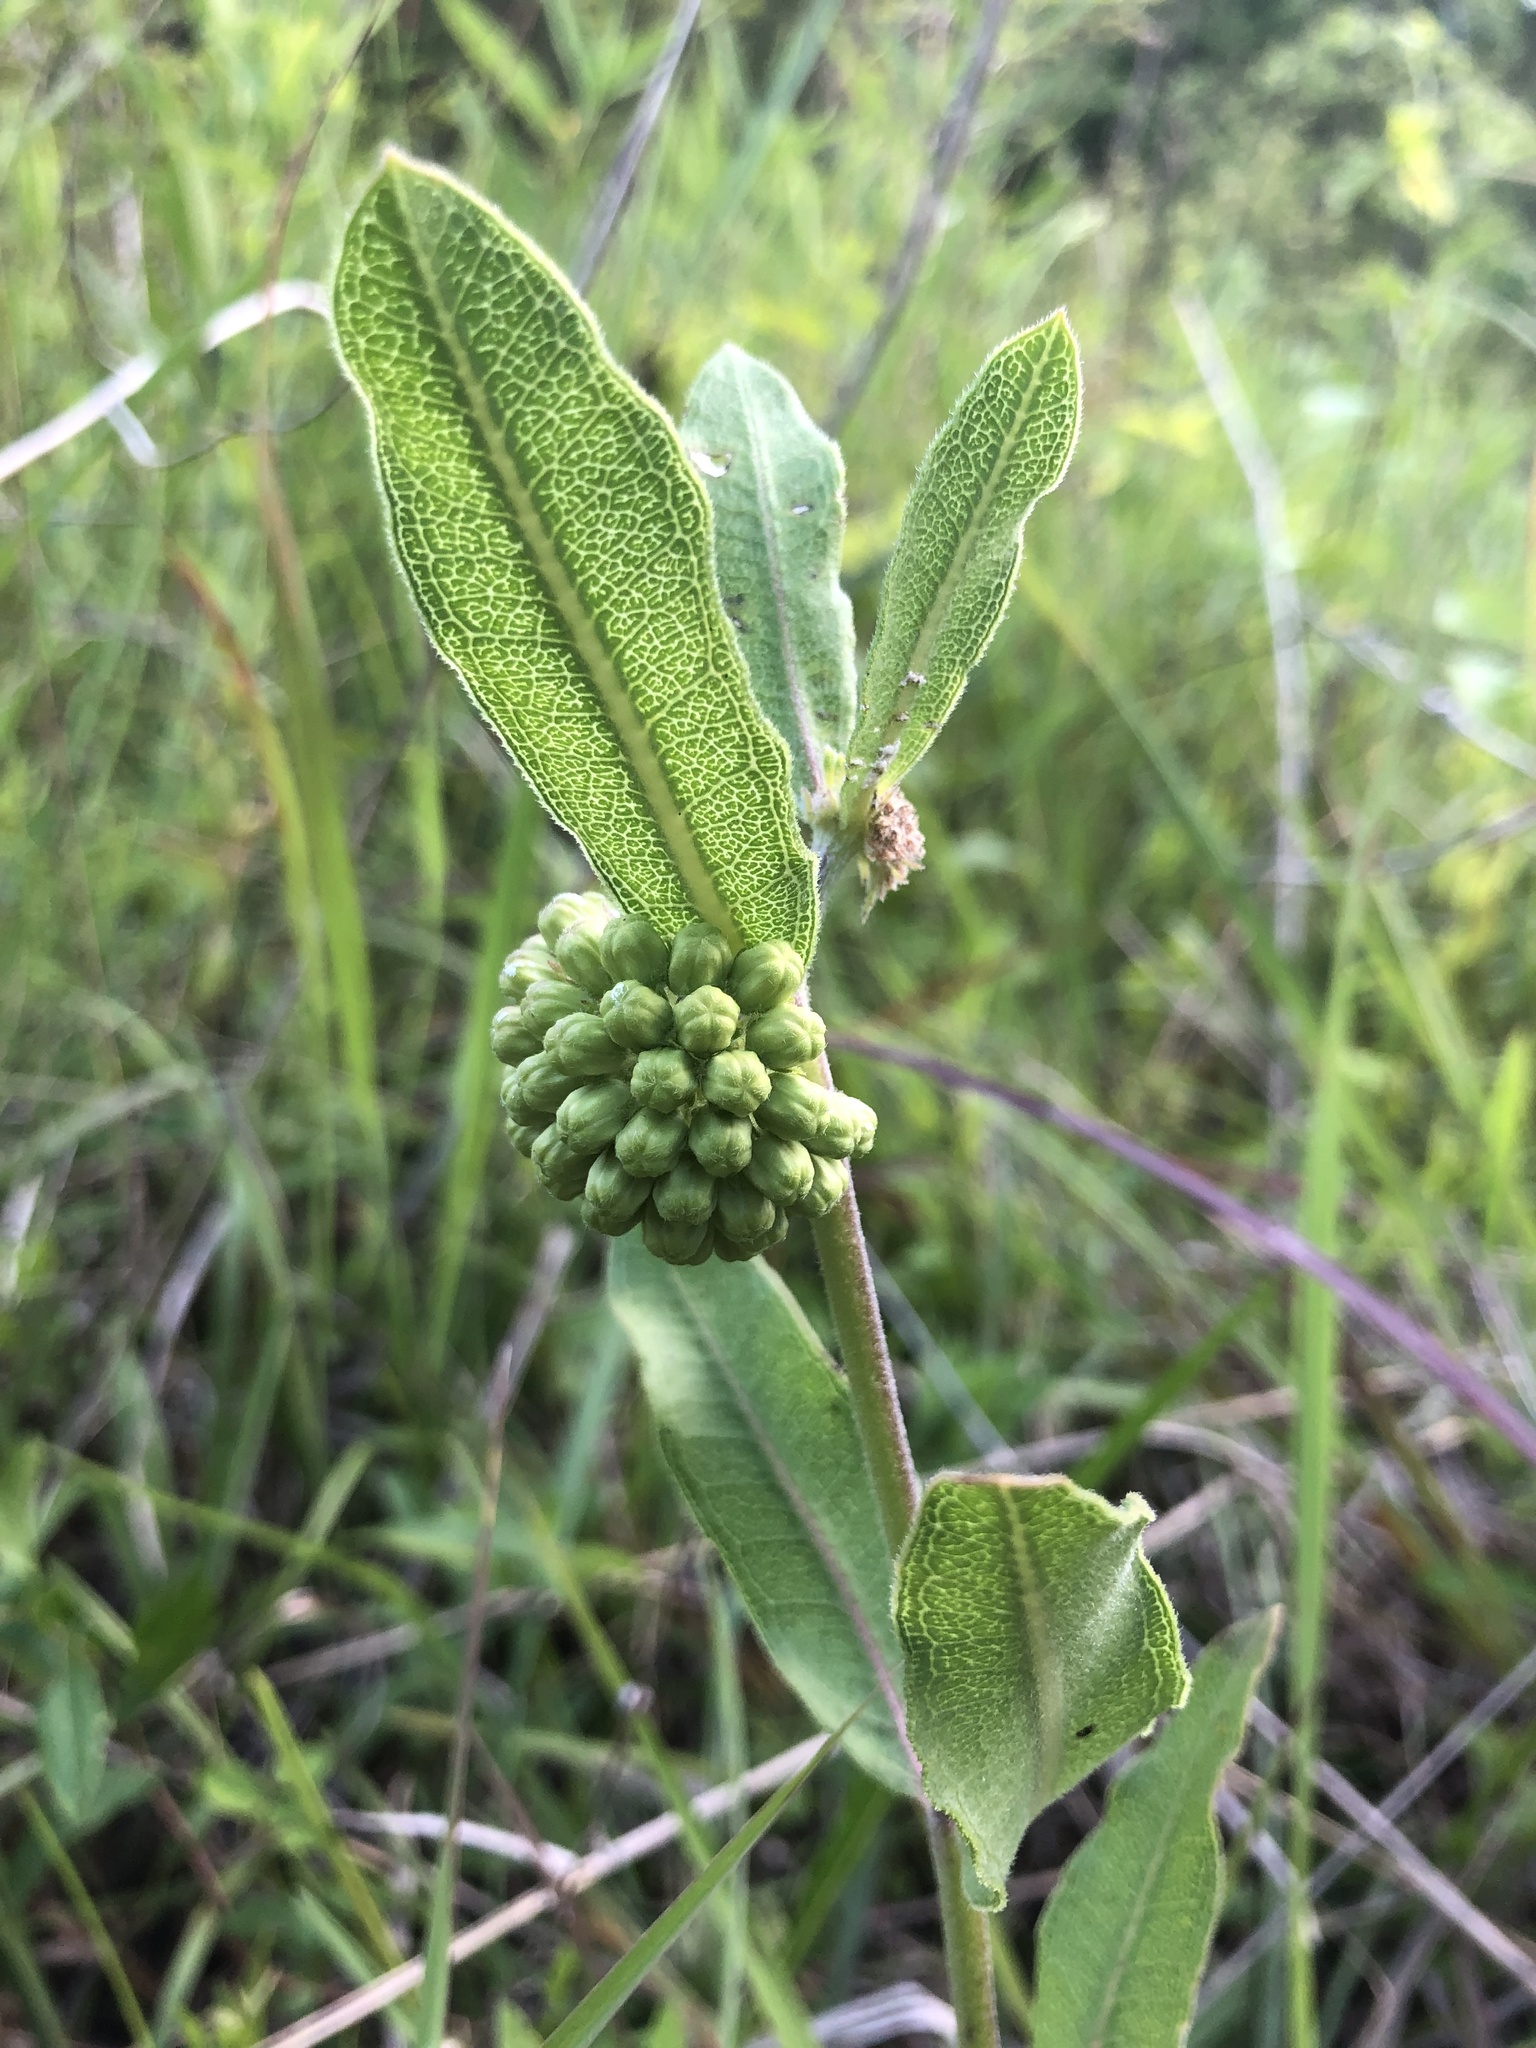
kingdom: Plantae
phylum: Tracheophyta
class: Magnoliopsida
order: Gentianales
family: Apocynaceae
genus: Asclepias
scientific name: Asclepias viridiflora
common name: Green comet milkweed
